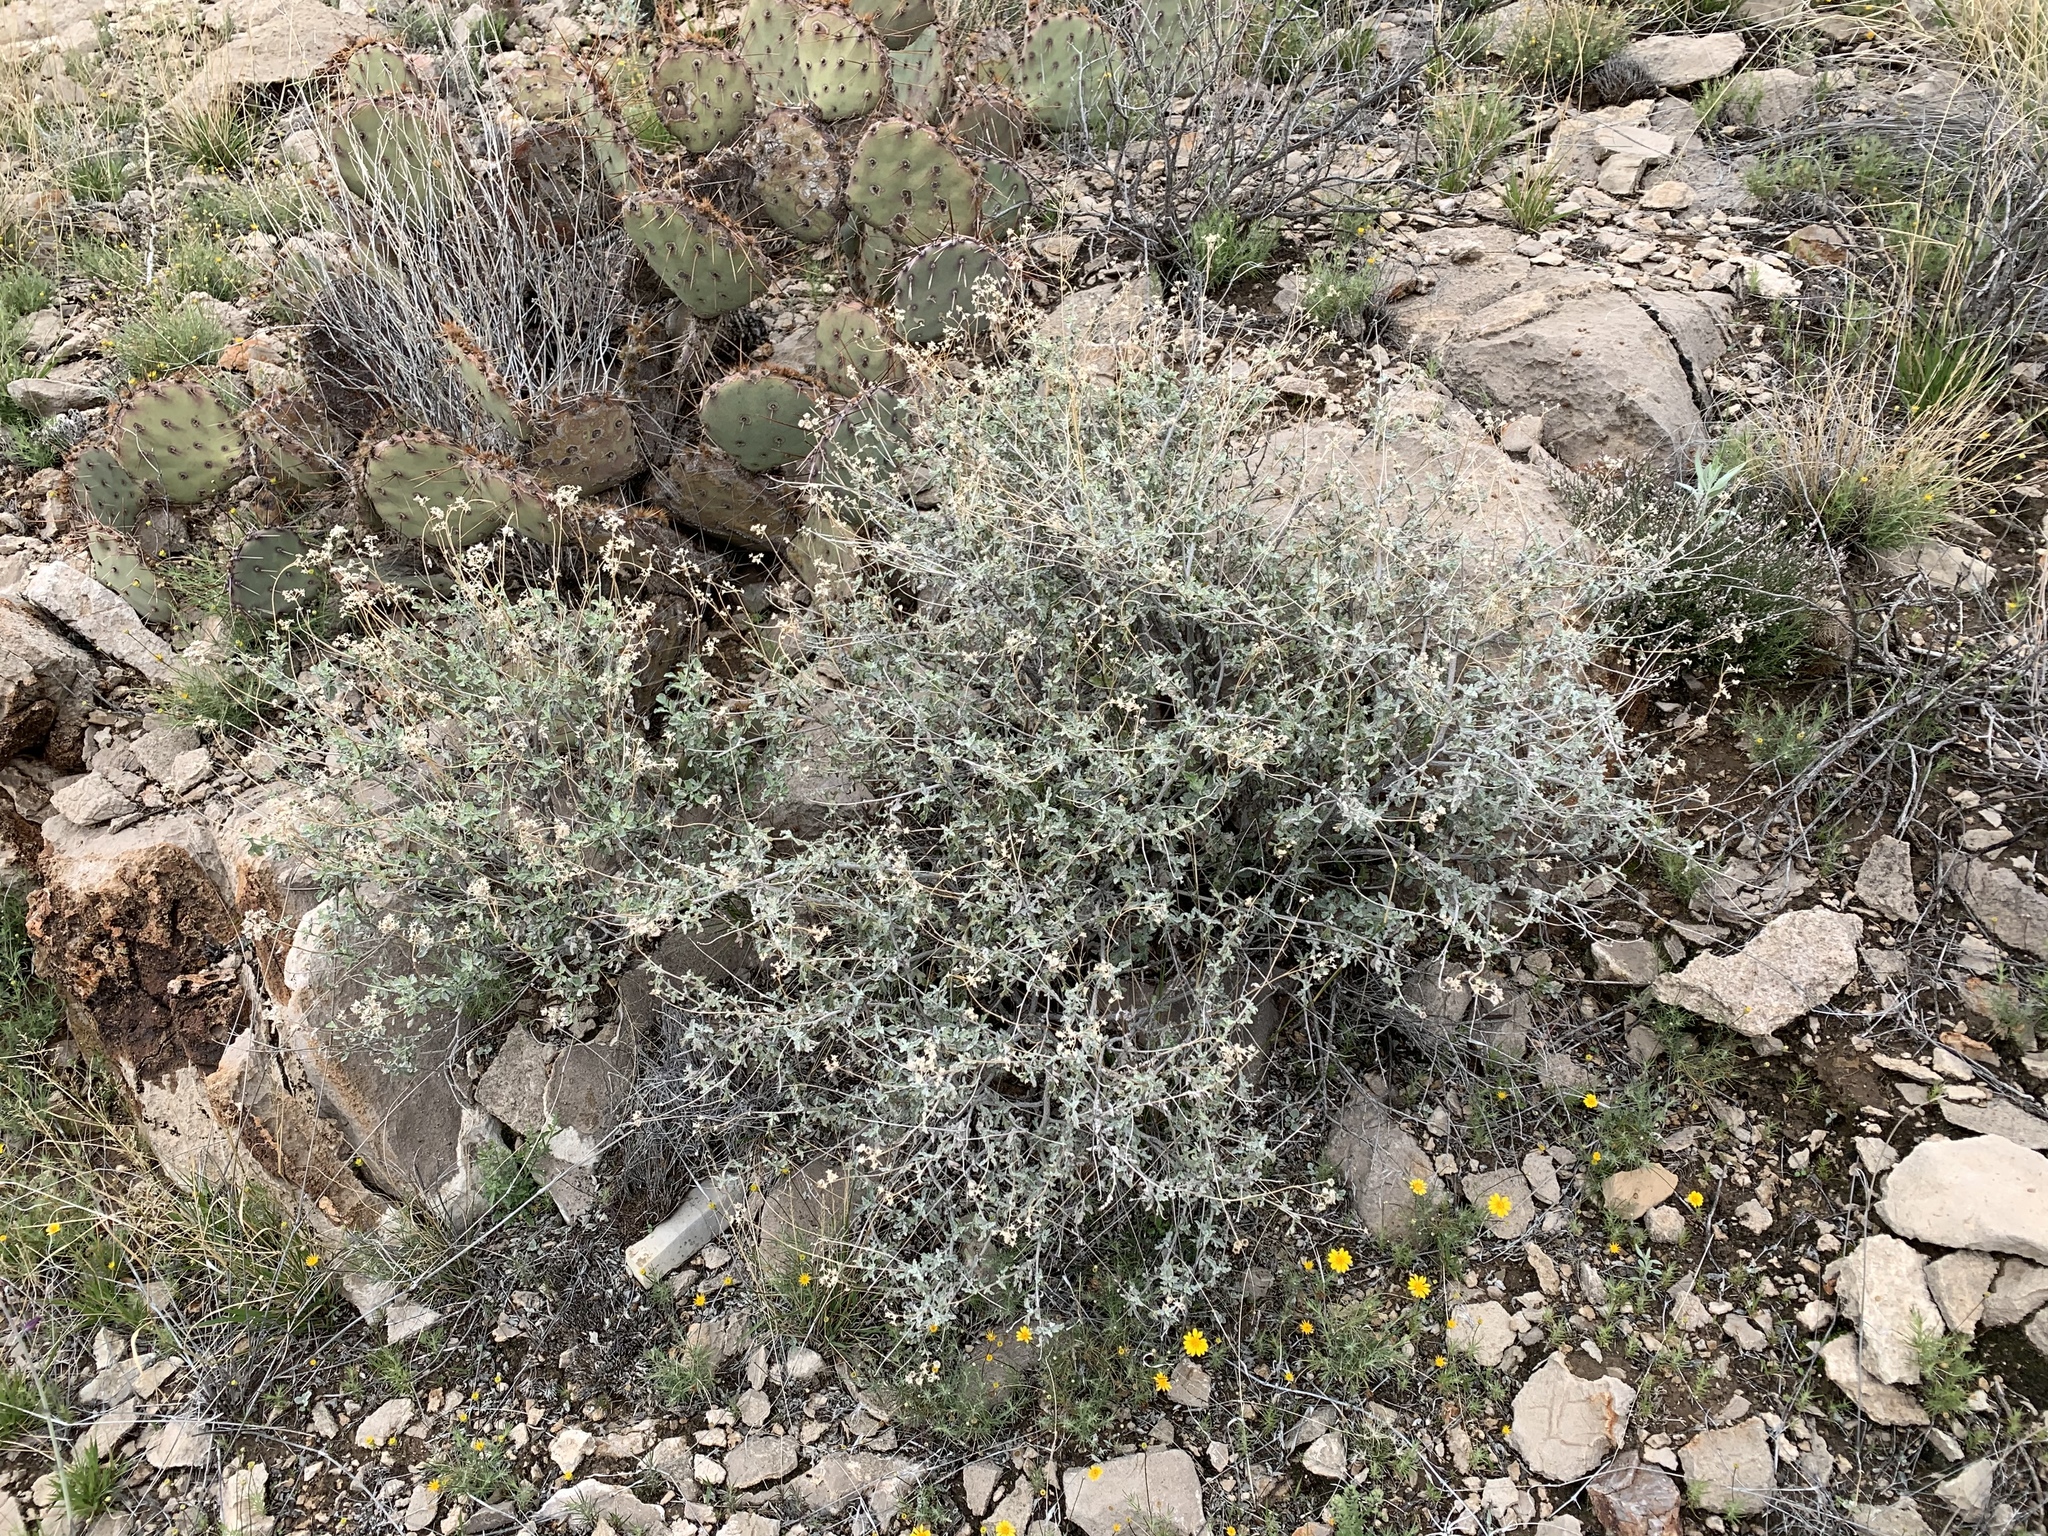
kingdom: Plantae
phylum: Tracheophyta
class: Magnoliopsida
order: Asterales
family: Asteraceae
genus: Parthenium
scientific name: Parthenium incanum
